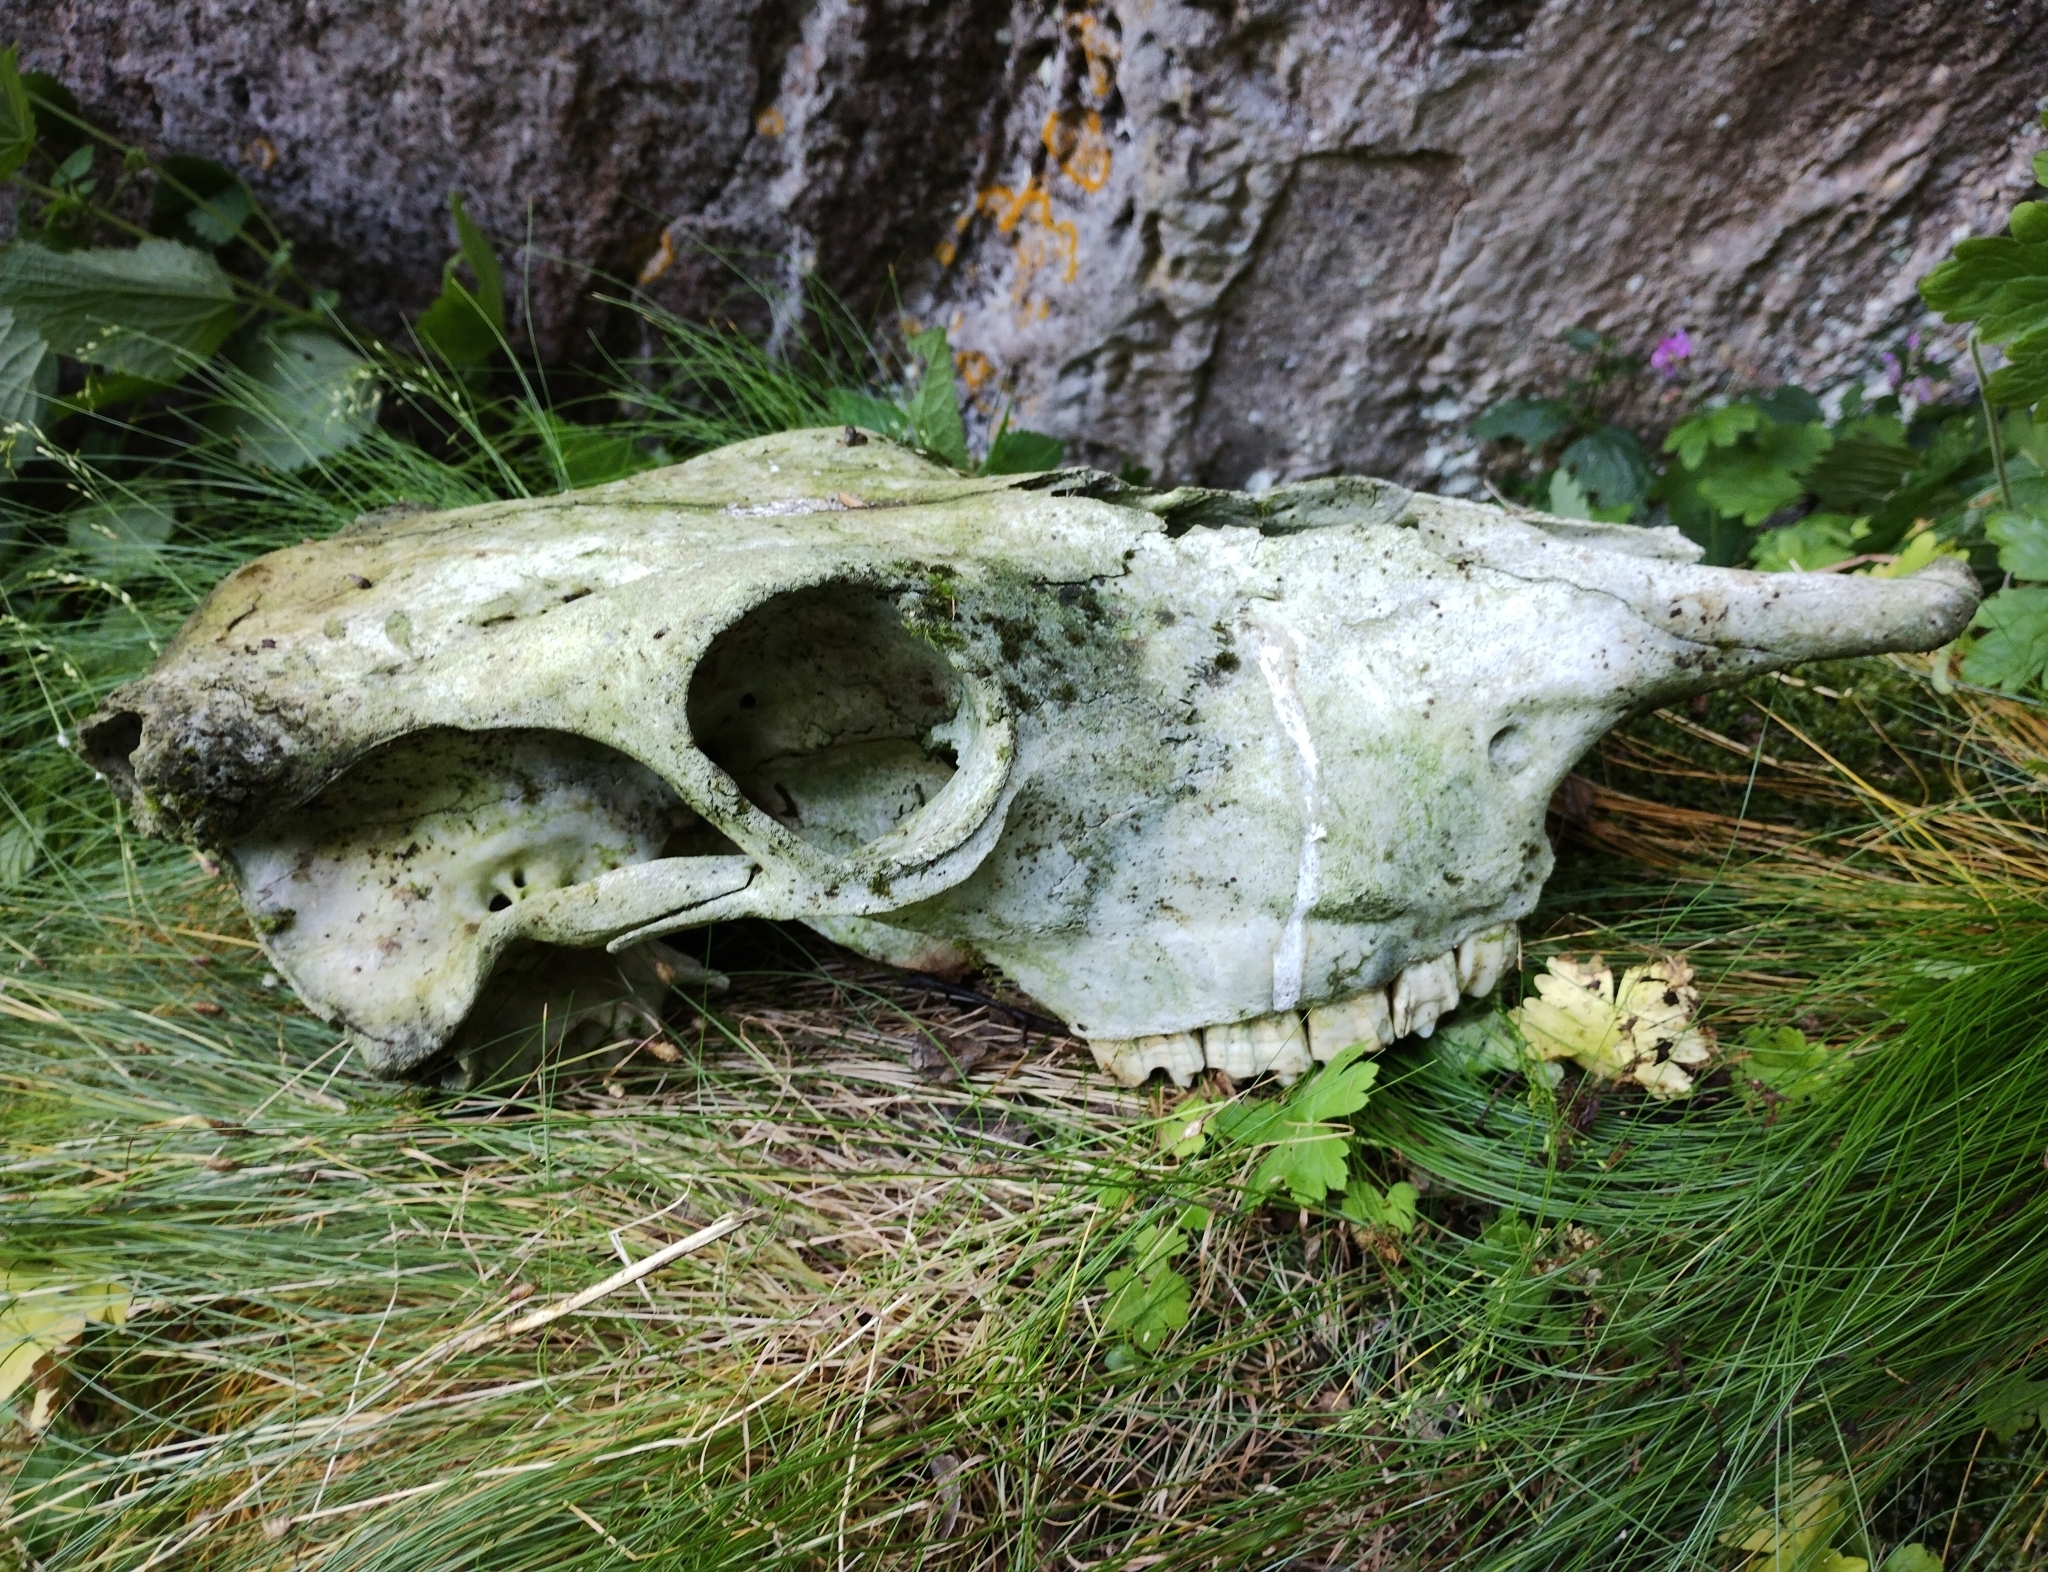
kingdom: Animalia
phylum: Chordata
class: Mammalia
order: Artiodactyla
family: Bovidae
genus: Bos
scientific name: Bos taurus
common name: Domesticated cattle
